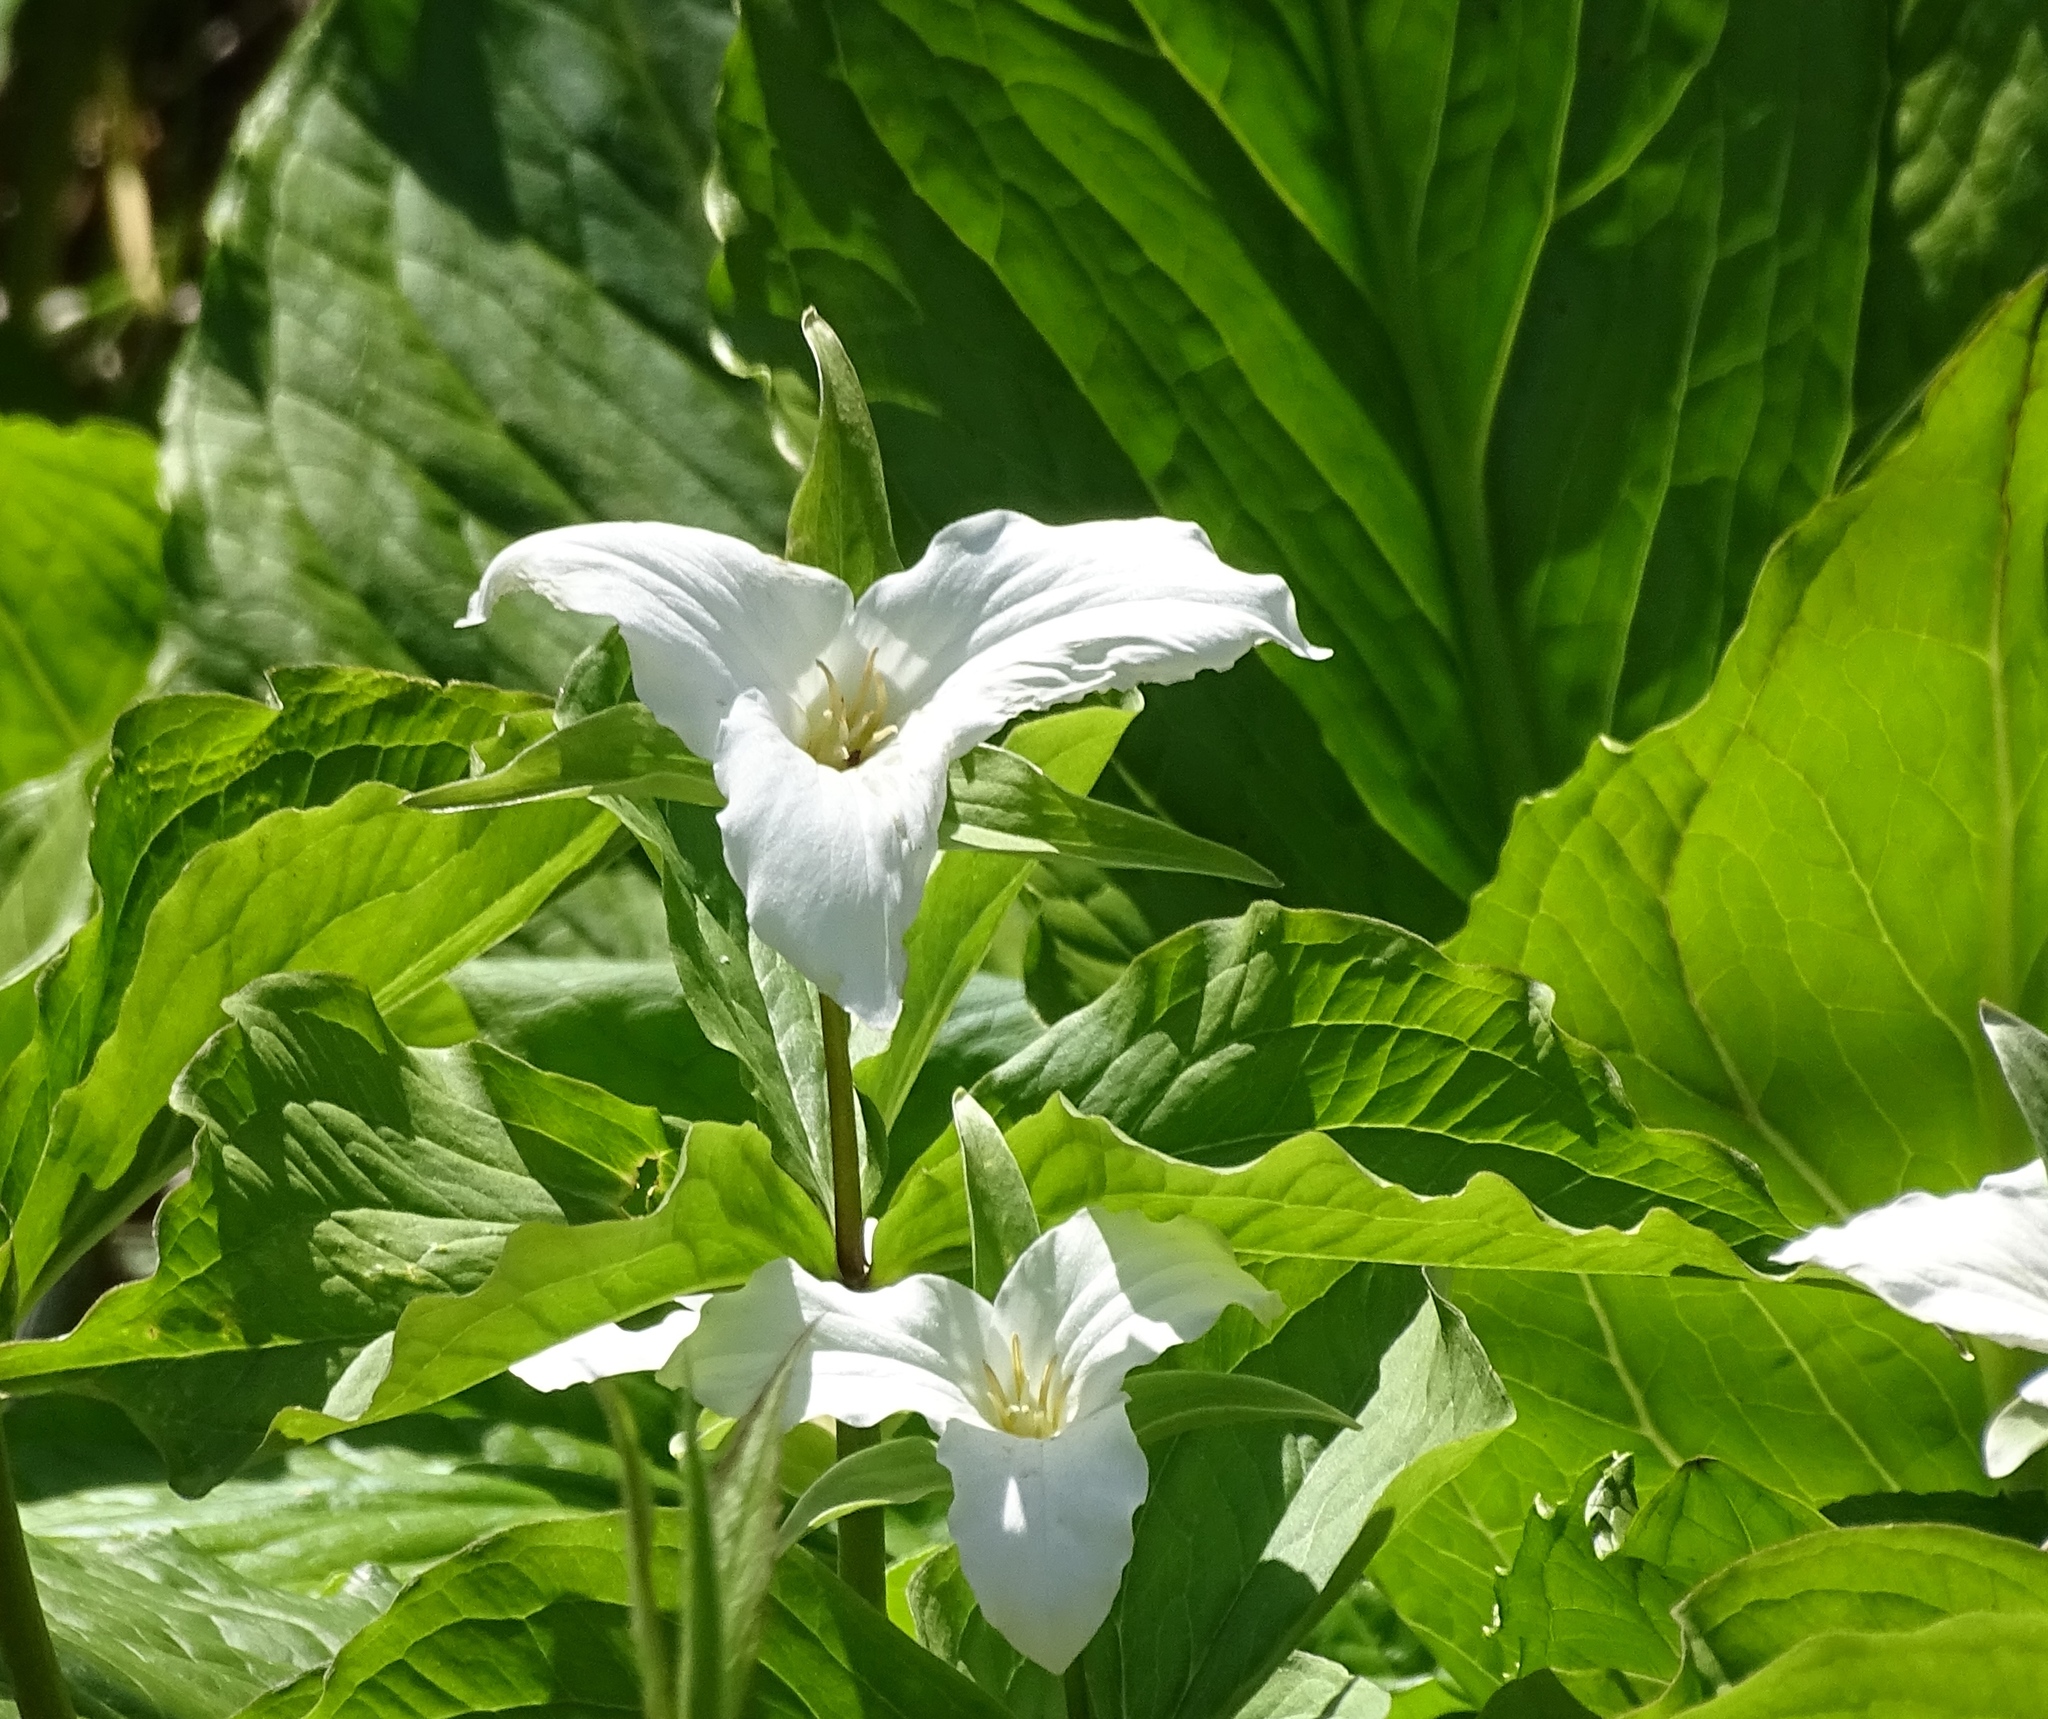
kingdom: Plantae
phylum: Tracheophyta
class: Liliopsida
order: Liliales
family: Melanthiaceae
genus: Trillium
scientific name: Trillium grandiflorum
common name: Great white trillium
